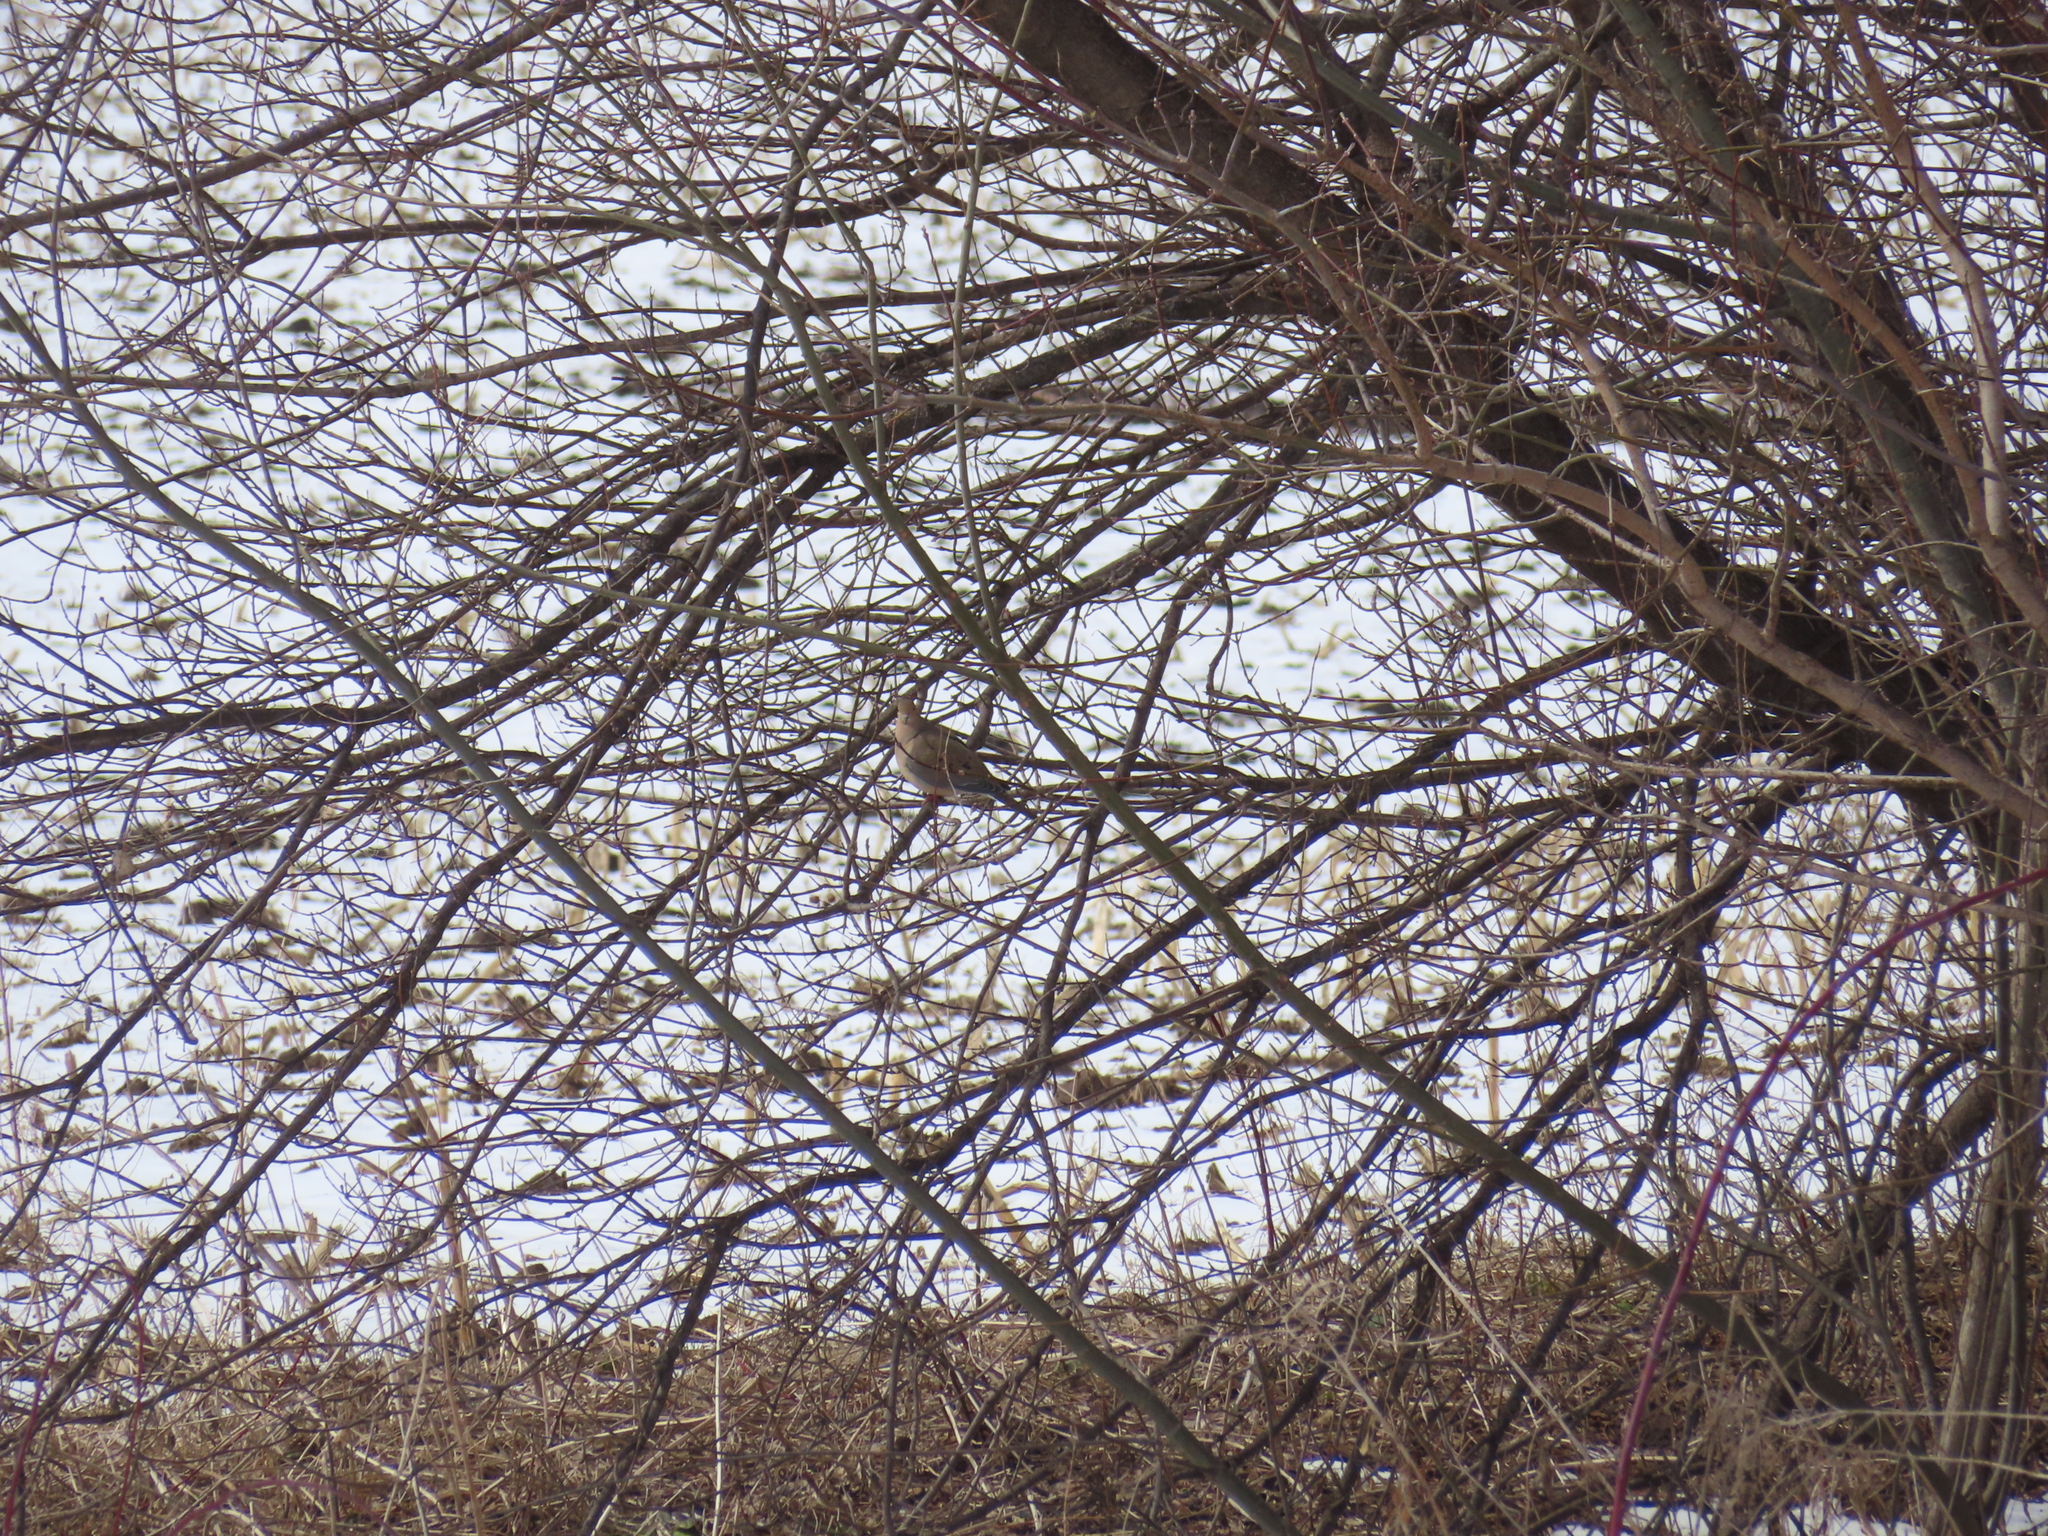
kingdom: Animalia
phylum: Chordata
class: Aves
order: Columbiformes
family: Columbidae
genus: Zenaida
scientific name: Zenaida macroura
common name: Mourning dove
